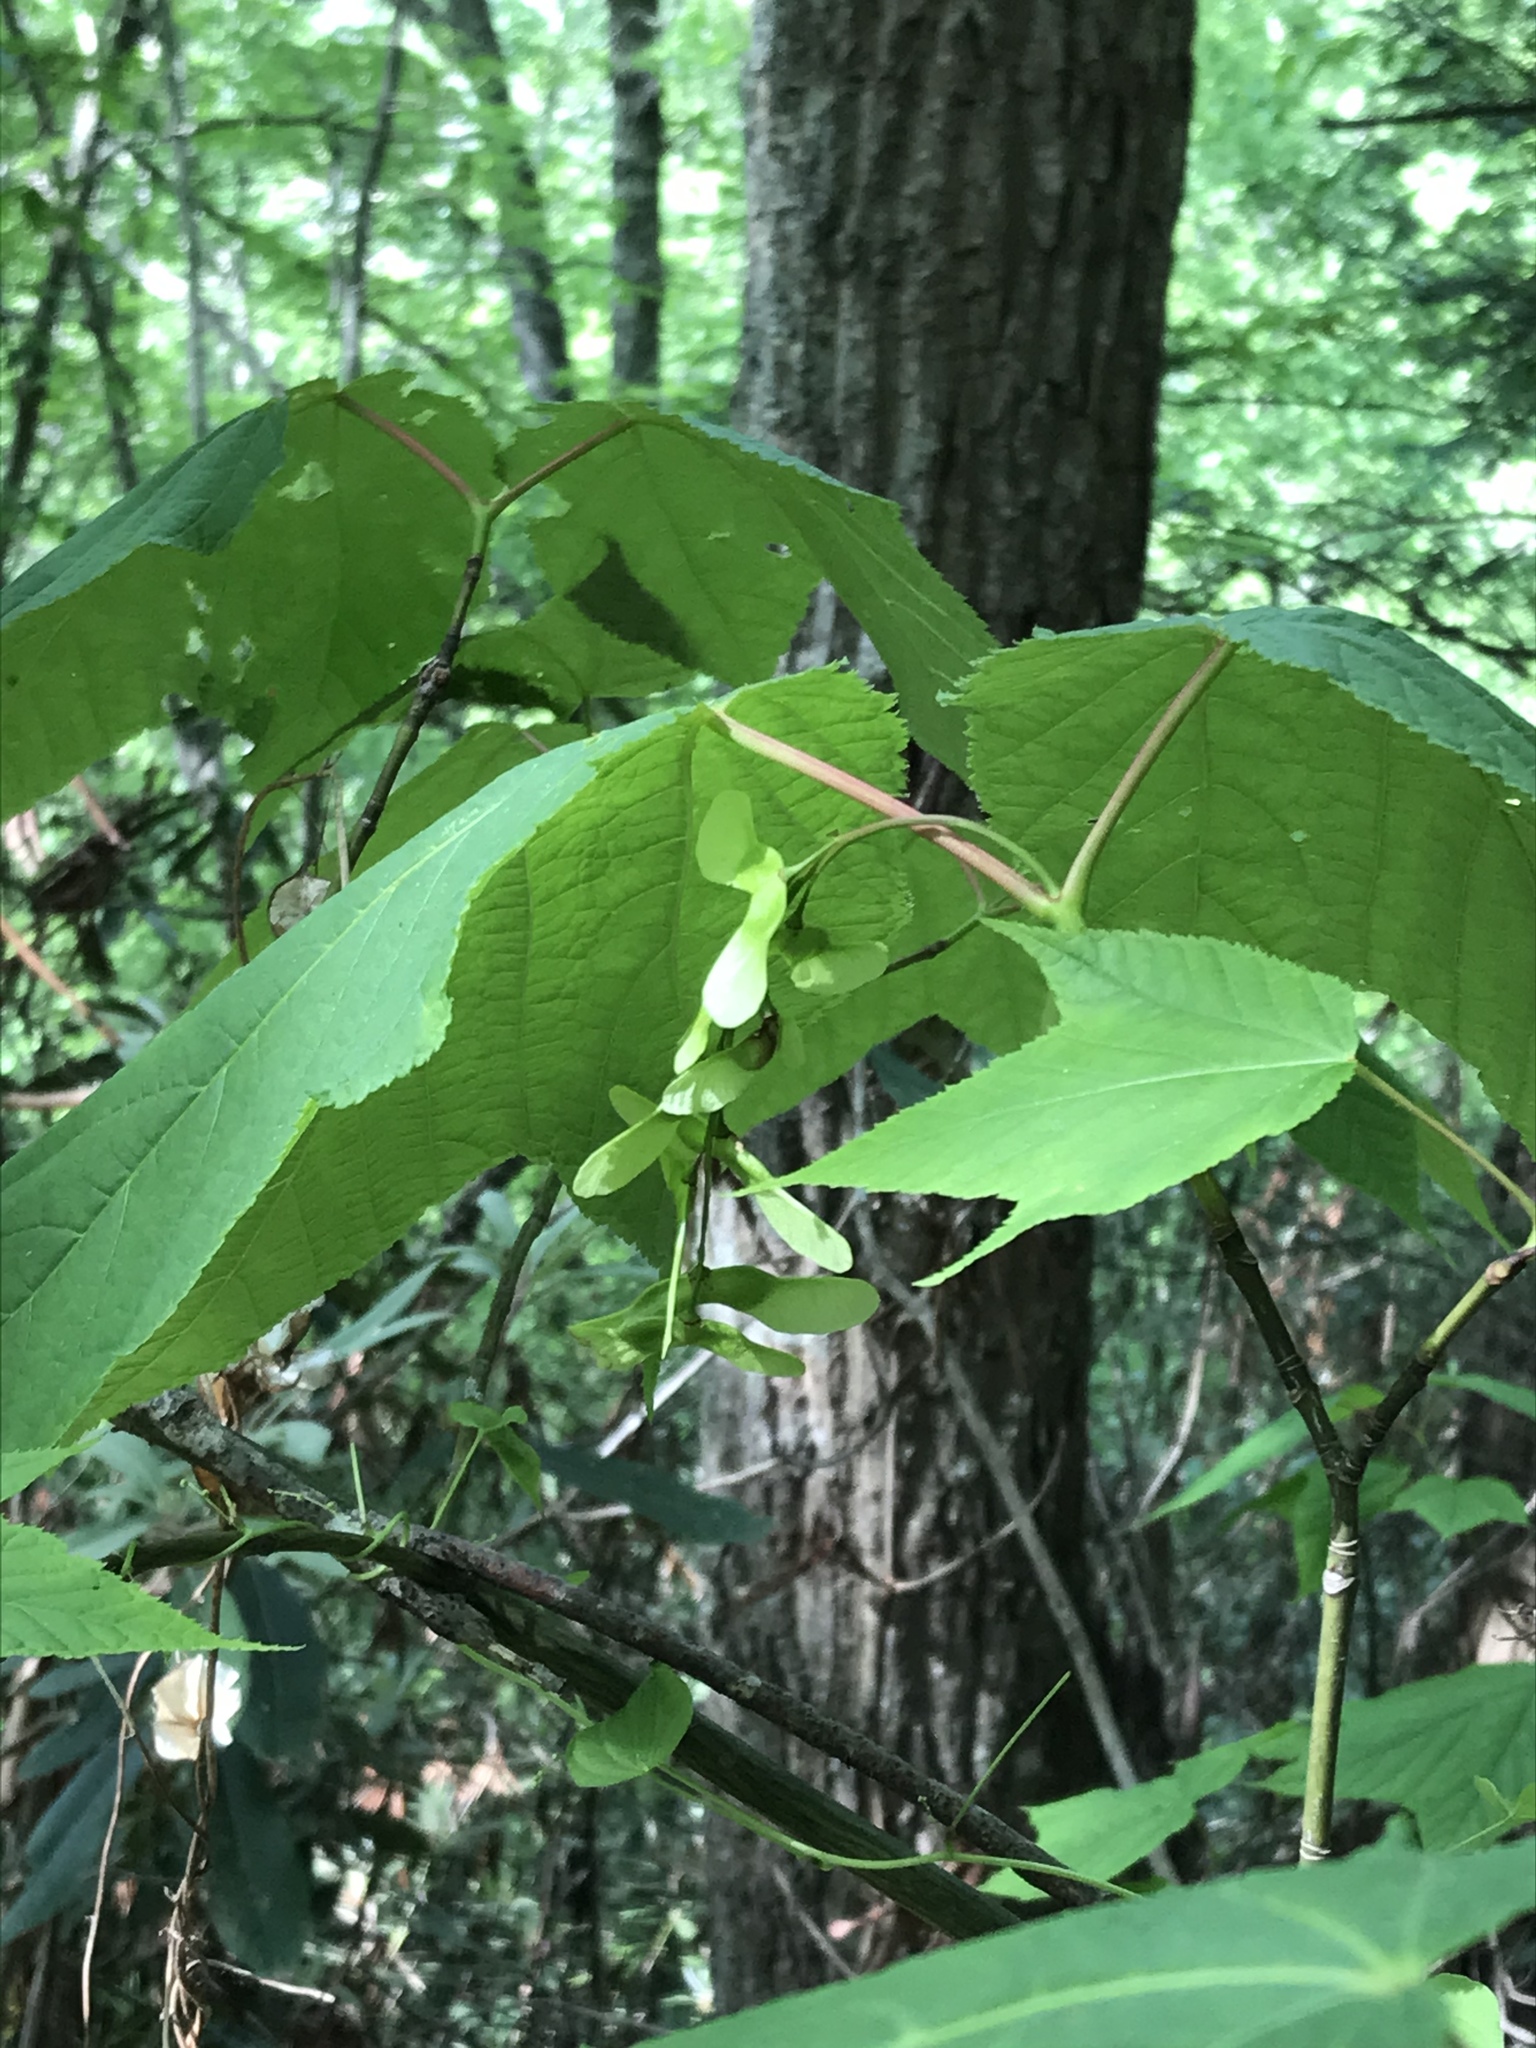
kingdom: Plantae
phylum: Tracheophyta
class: Magnoliopsida
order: Sapindales
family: Sapindaceae
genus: Acer
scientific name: Acer pensylvanicum
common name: Moosewood
